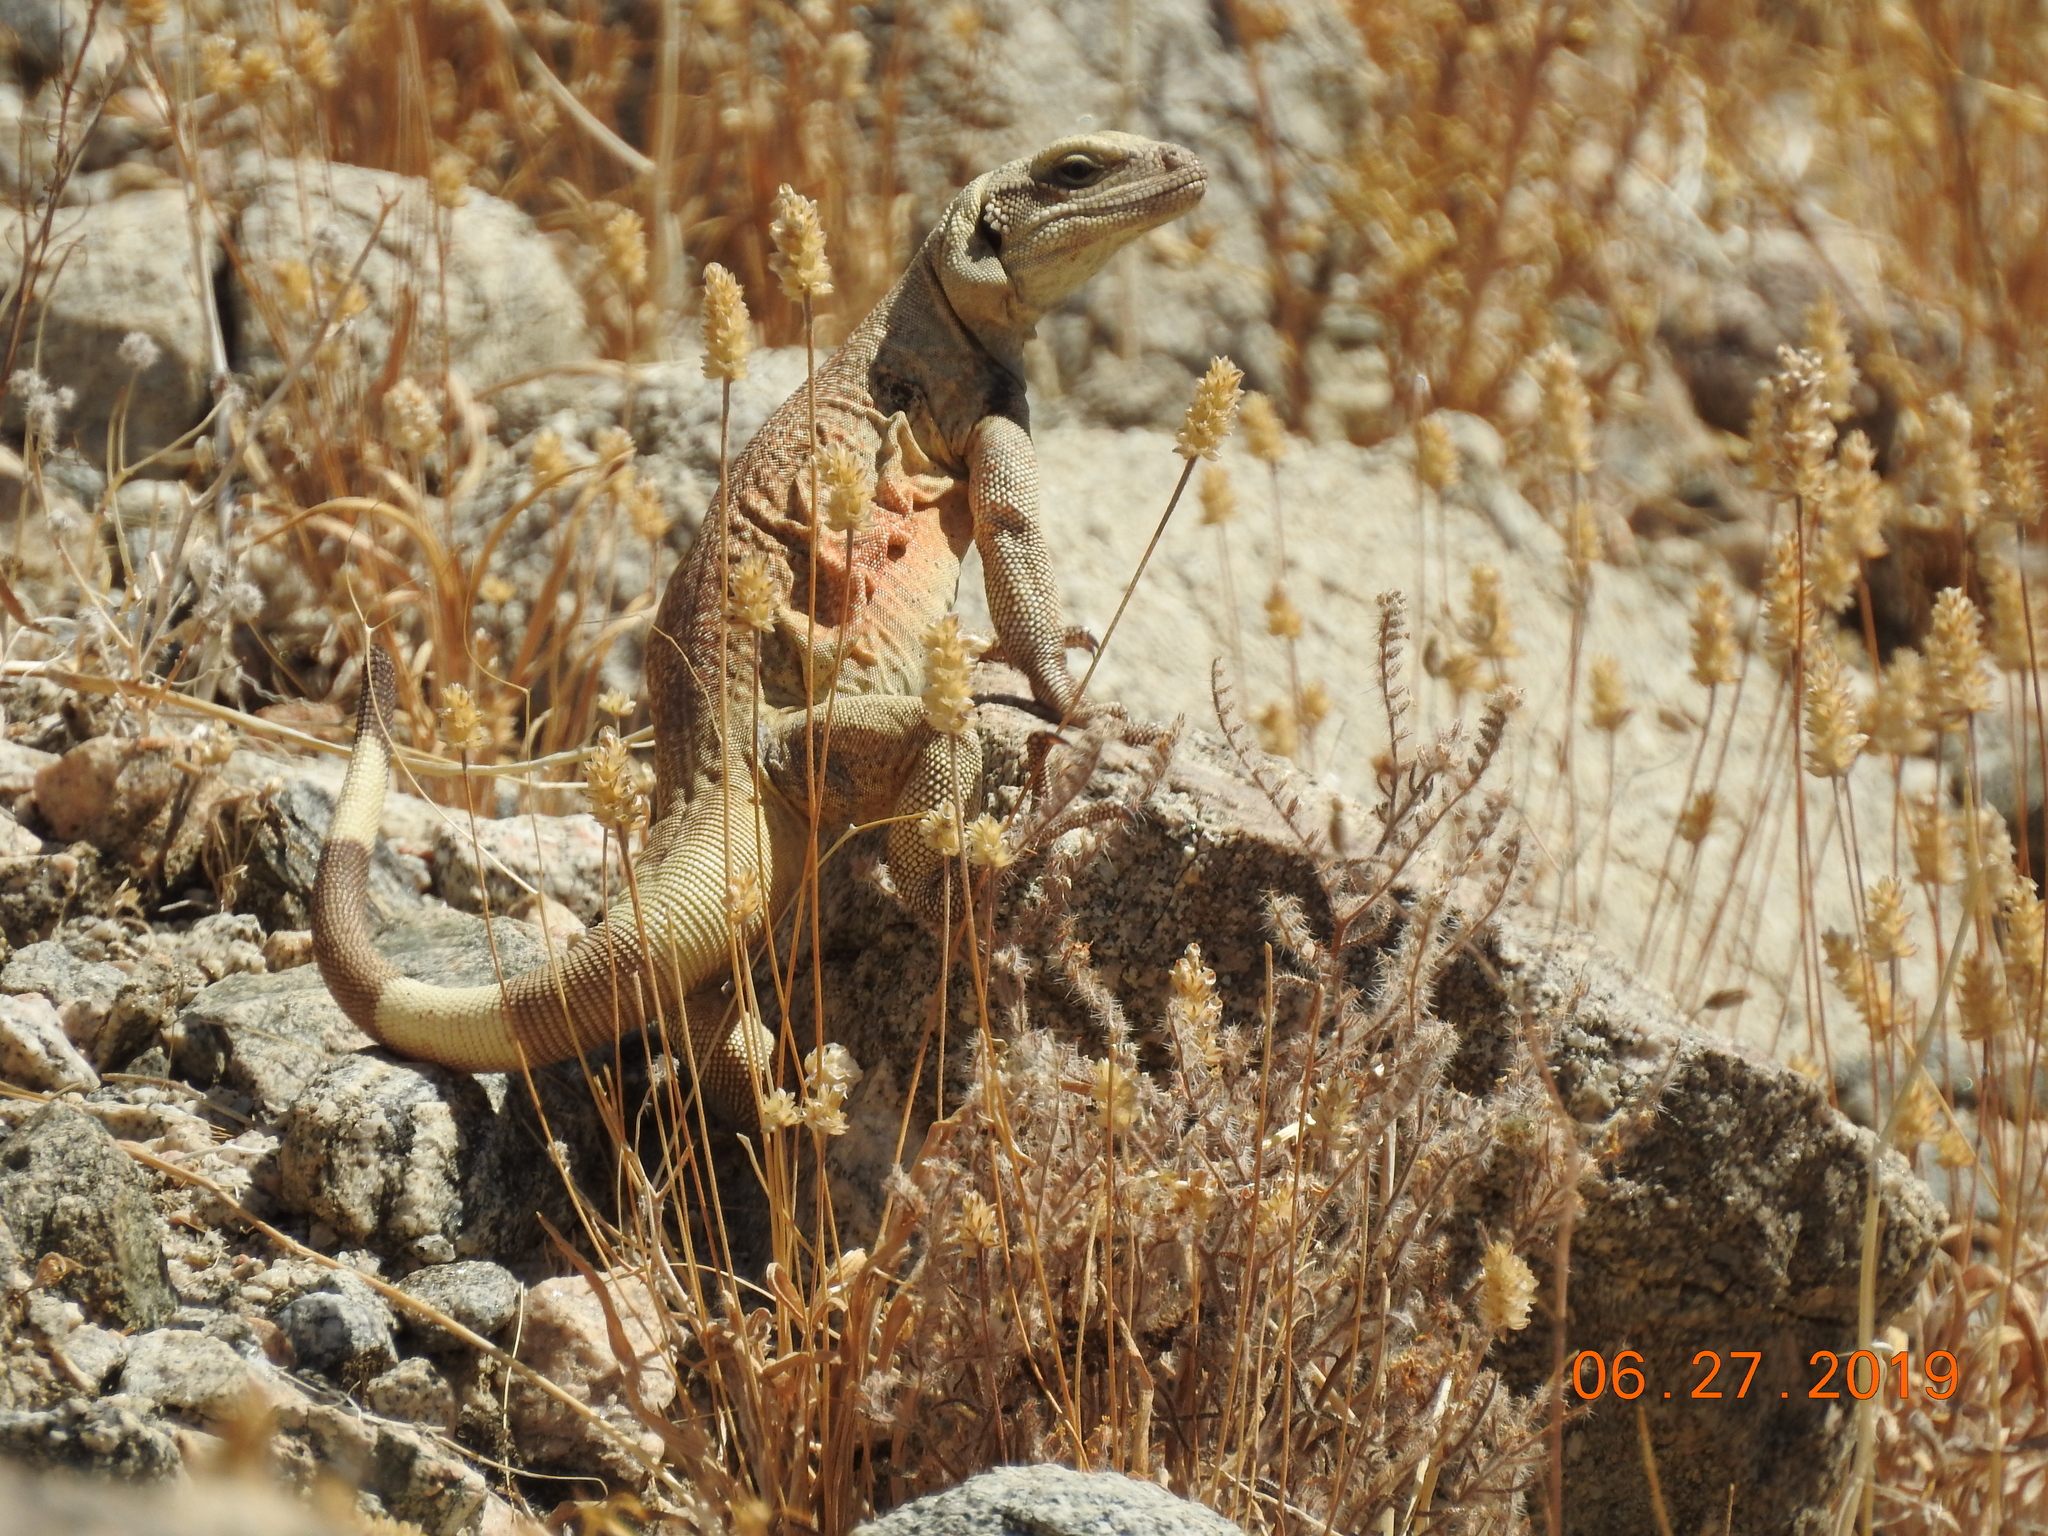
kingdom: Animalia
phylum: Chordata
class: Squamata
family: Iguanidae
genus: Sauromalus
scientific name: Sauromalus ater
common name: Northern chuckwalla
